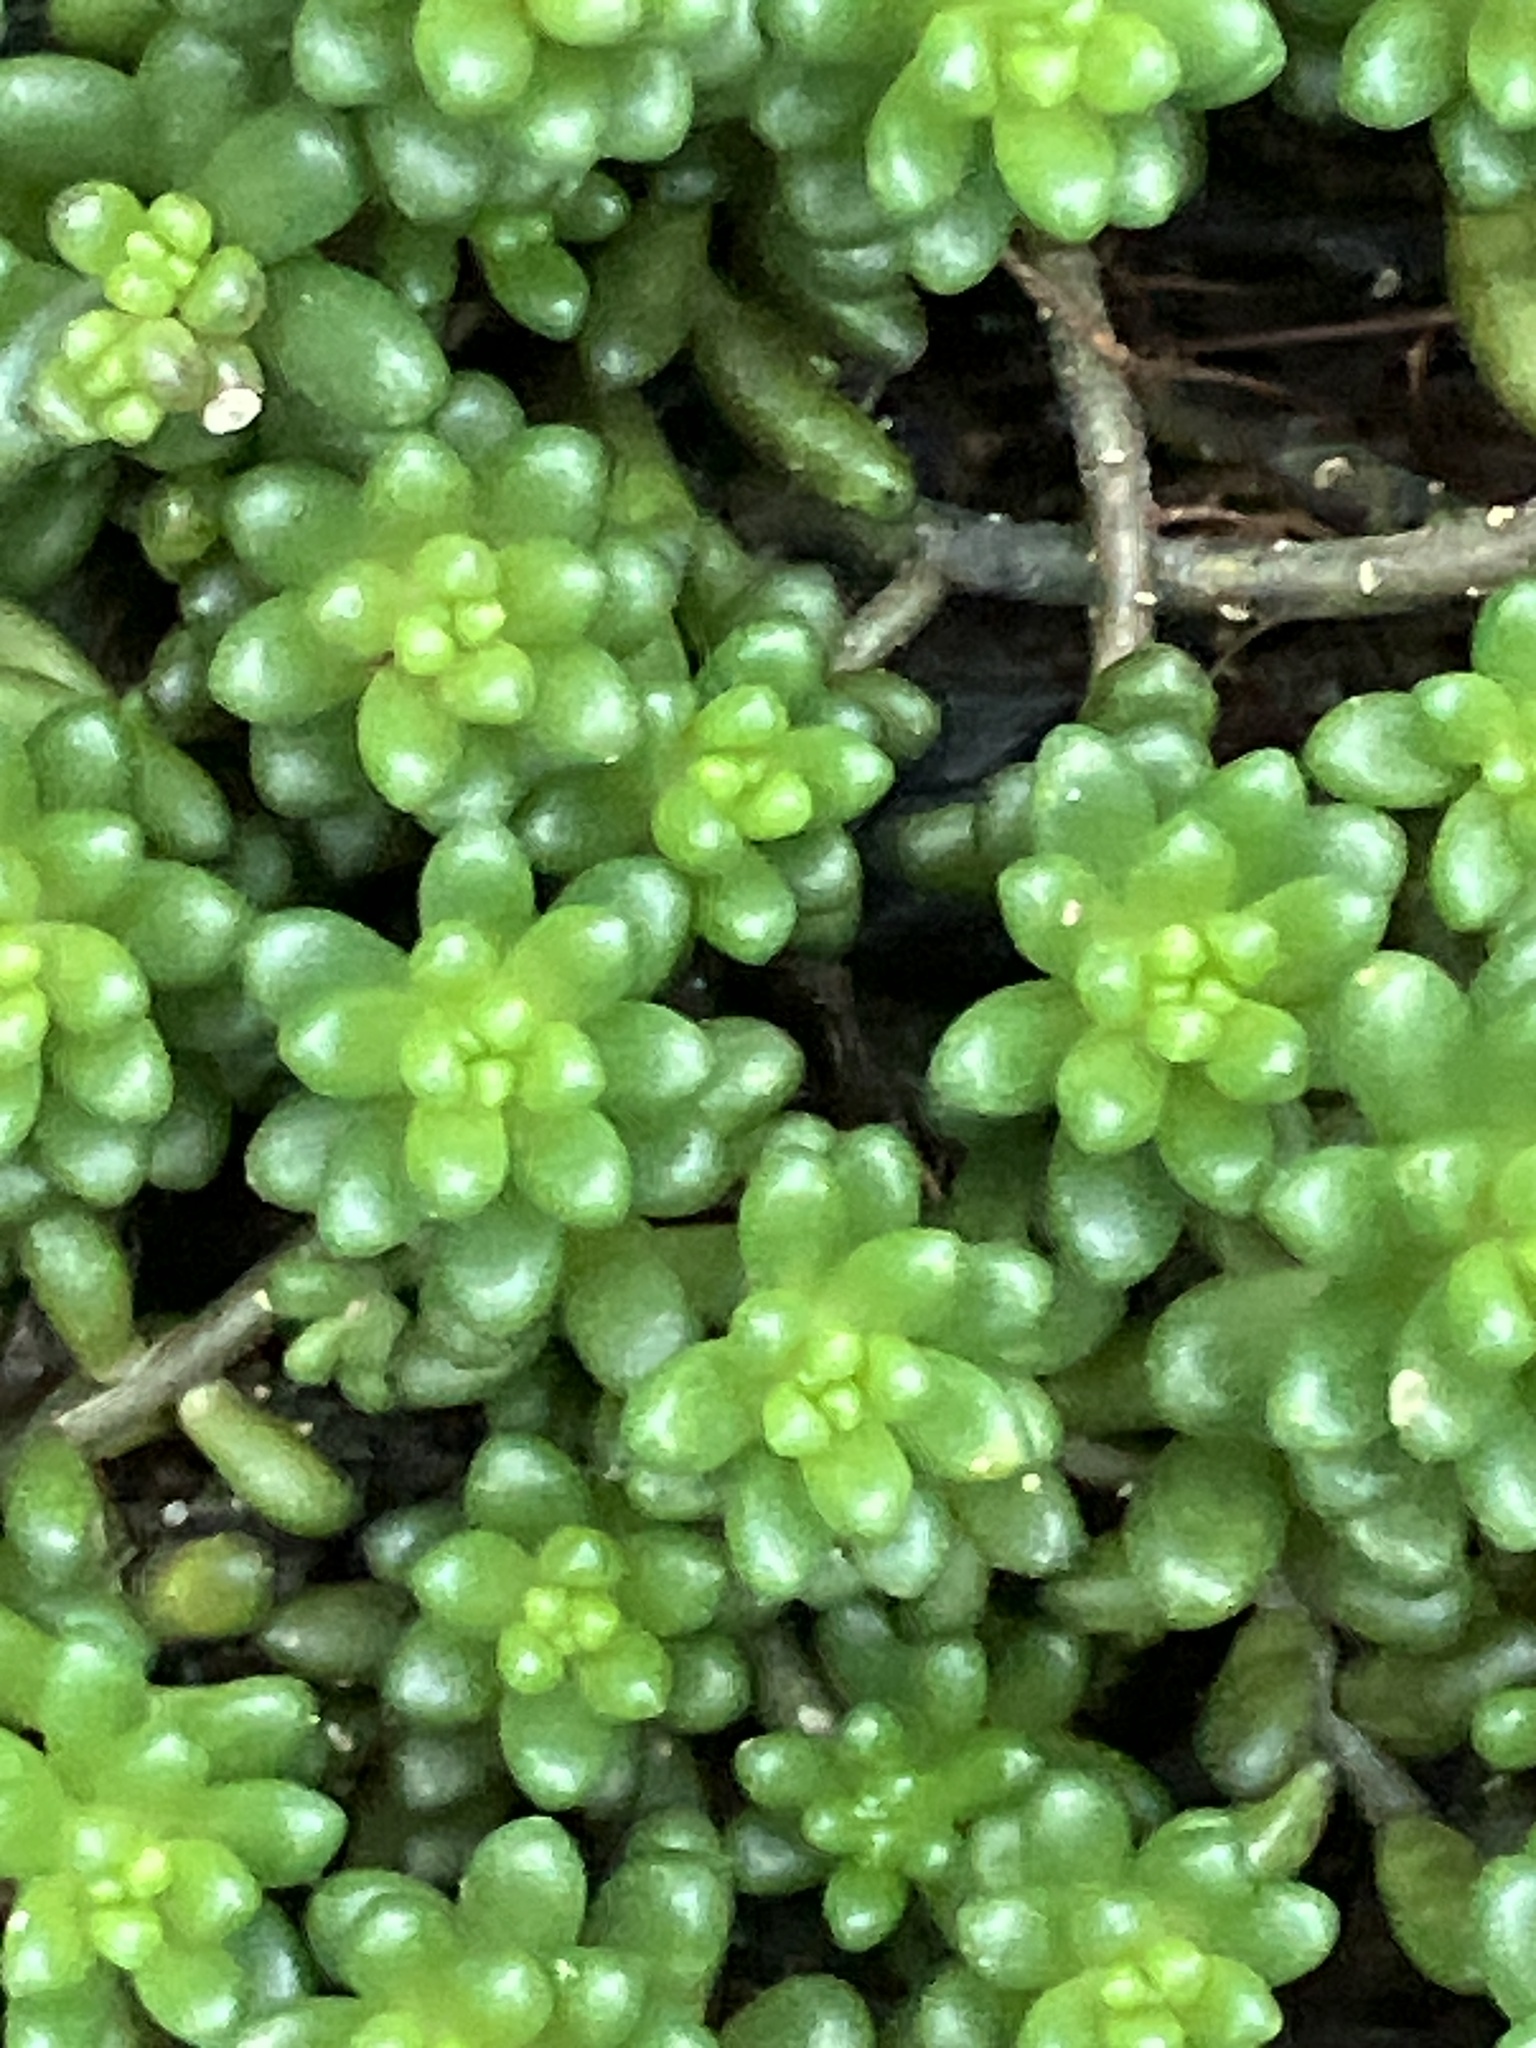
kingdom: Plantae
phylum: Tracheophyta
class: Magnoliopsida
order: Saxifragales
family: Crassulaceae
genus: Sedum
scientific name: Sedum album
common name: White stonecrop
